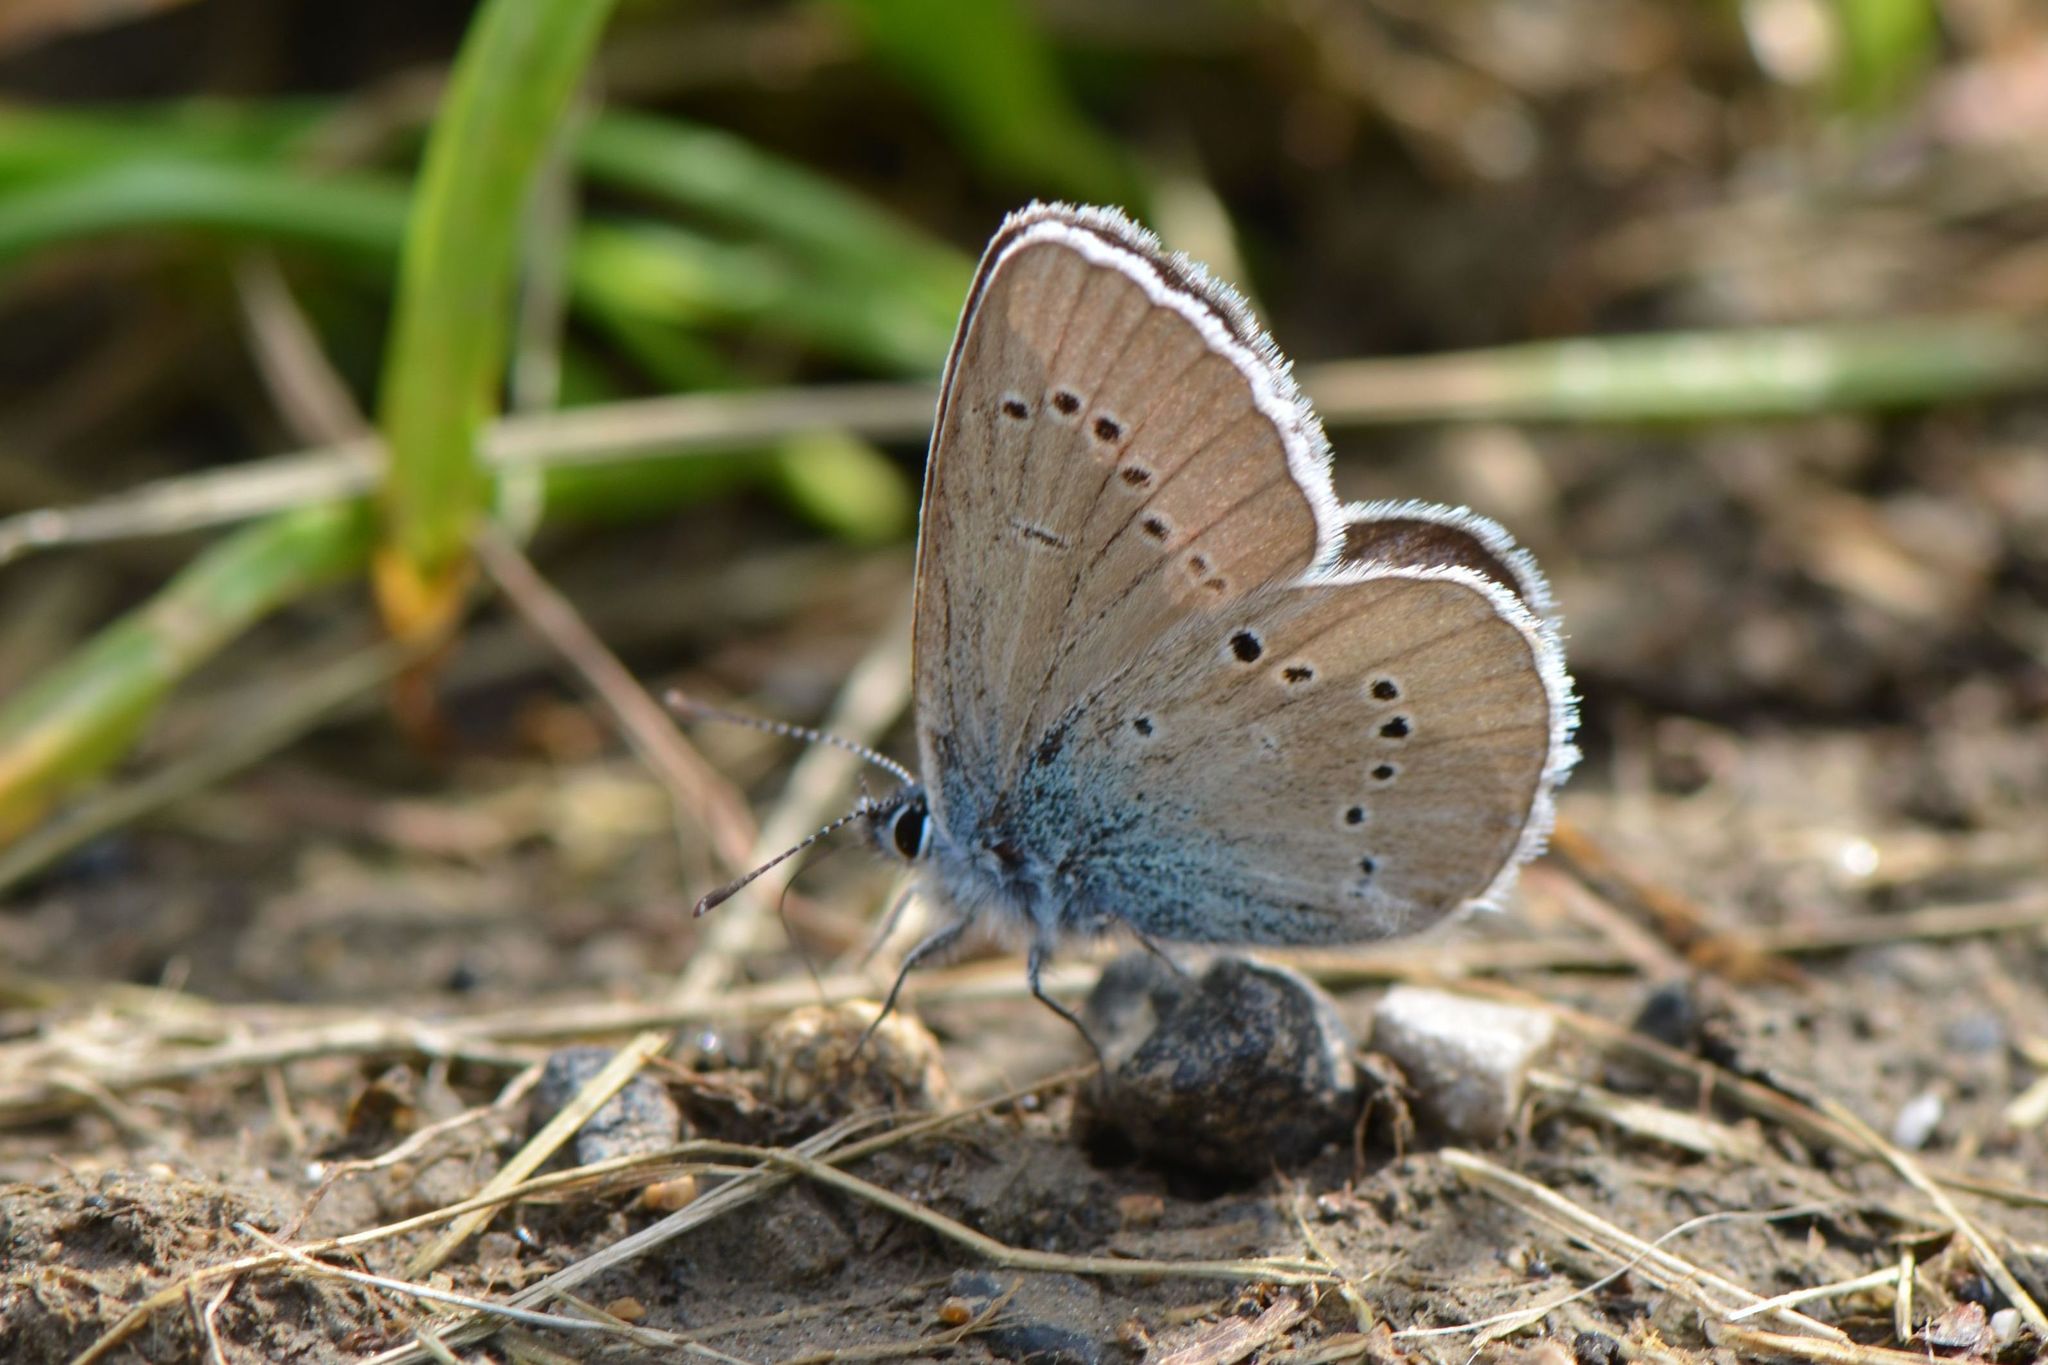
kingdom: Animalia
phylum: Arthropoda
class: Insecta
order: Lepidoptera
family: Lycaenidae
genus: Cyaniris
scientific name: Cyaniris semiargus
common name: Mazarine blue
